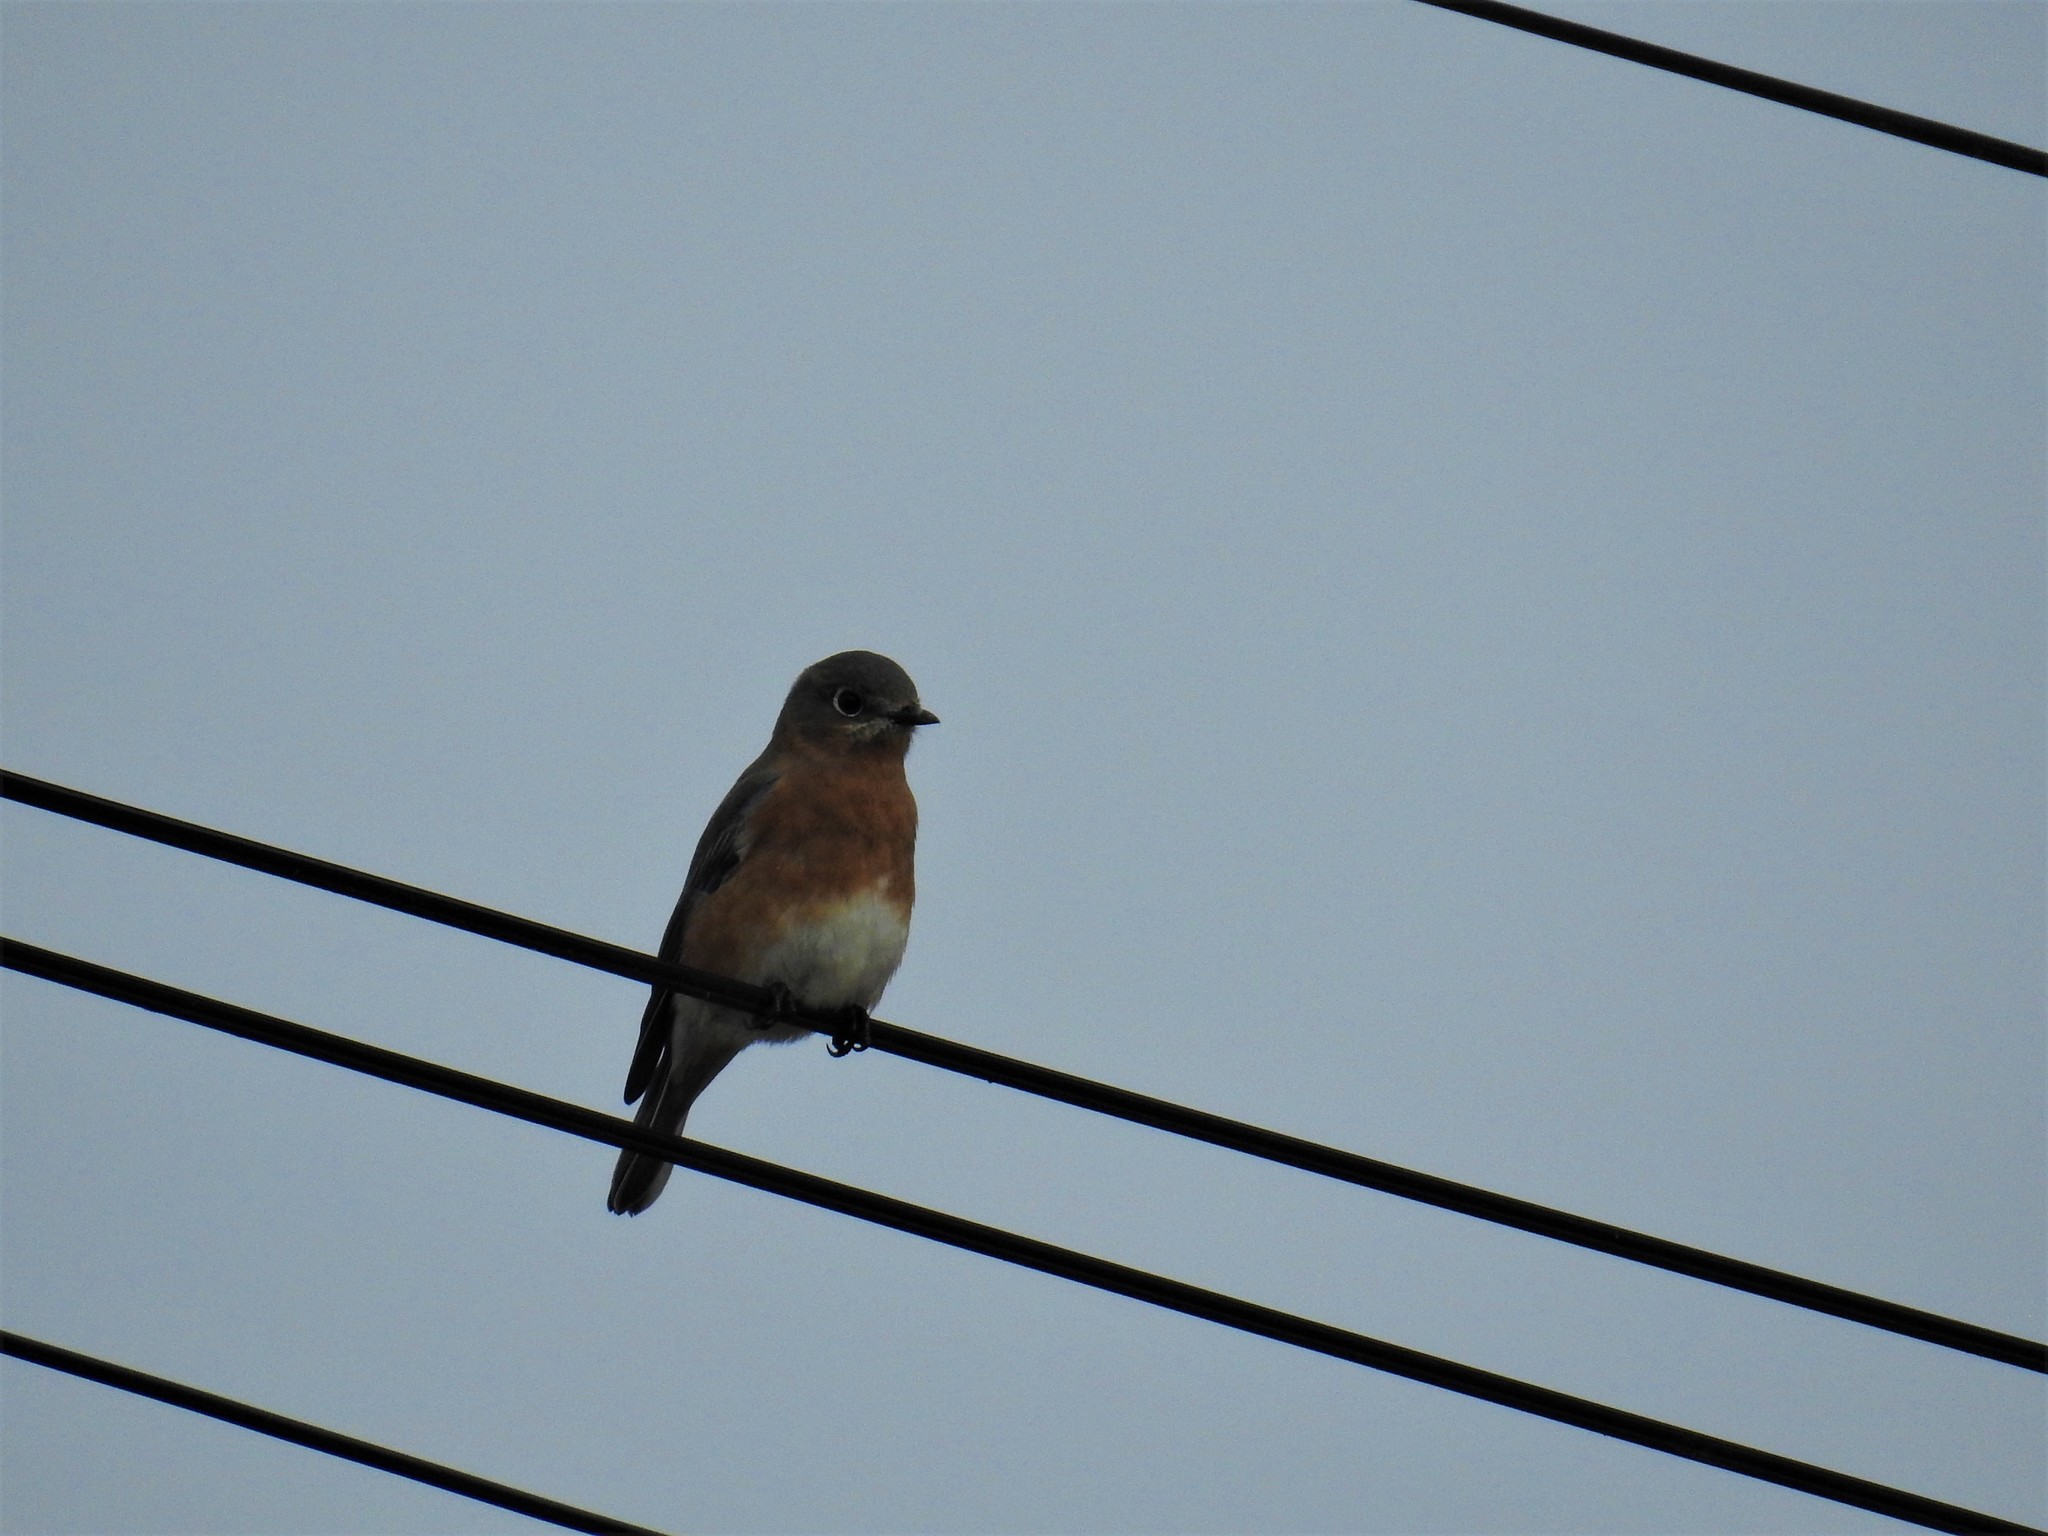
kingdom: Animalia
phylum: Chordata
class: Aves
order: Passeriformes
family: Turdidae
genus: Sialia
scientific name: Sialia sialis
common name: Eastern bluebird
